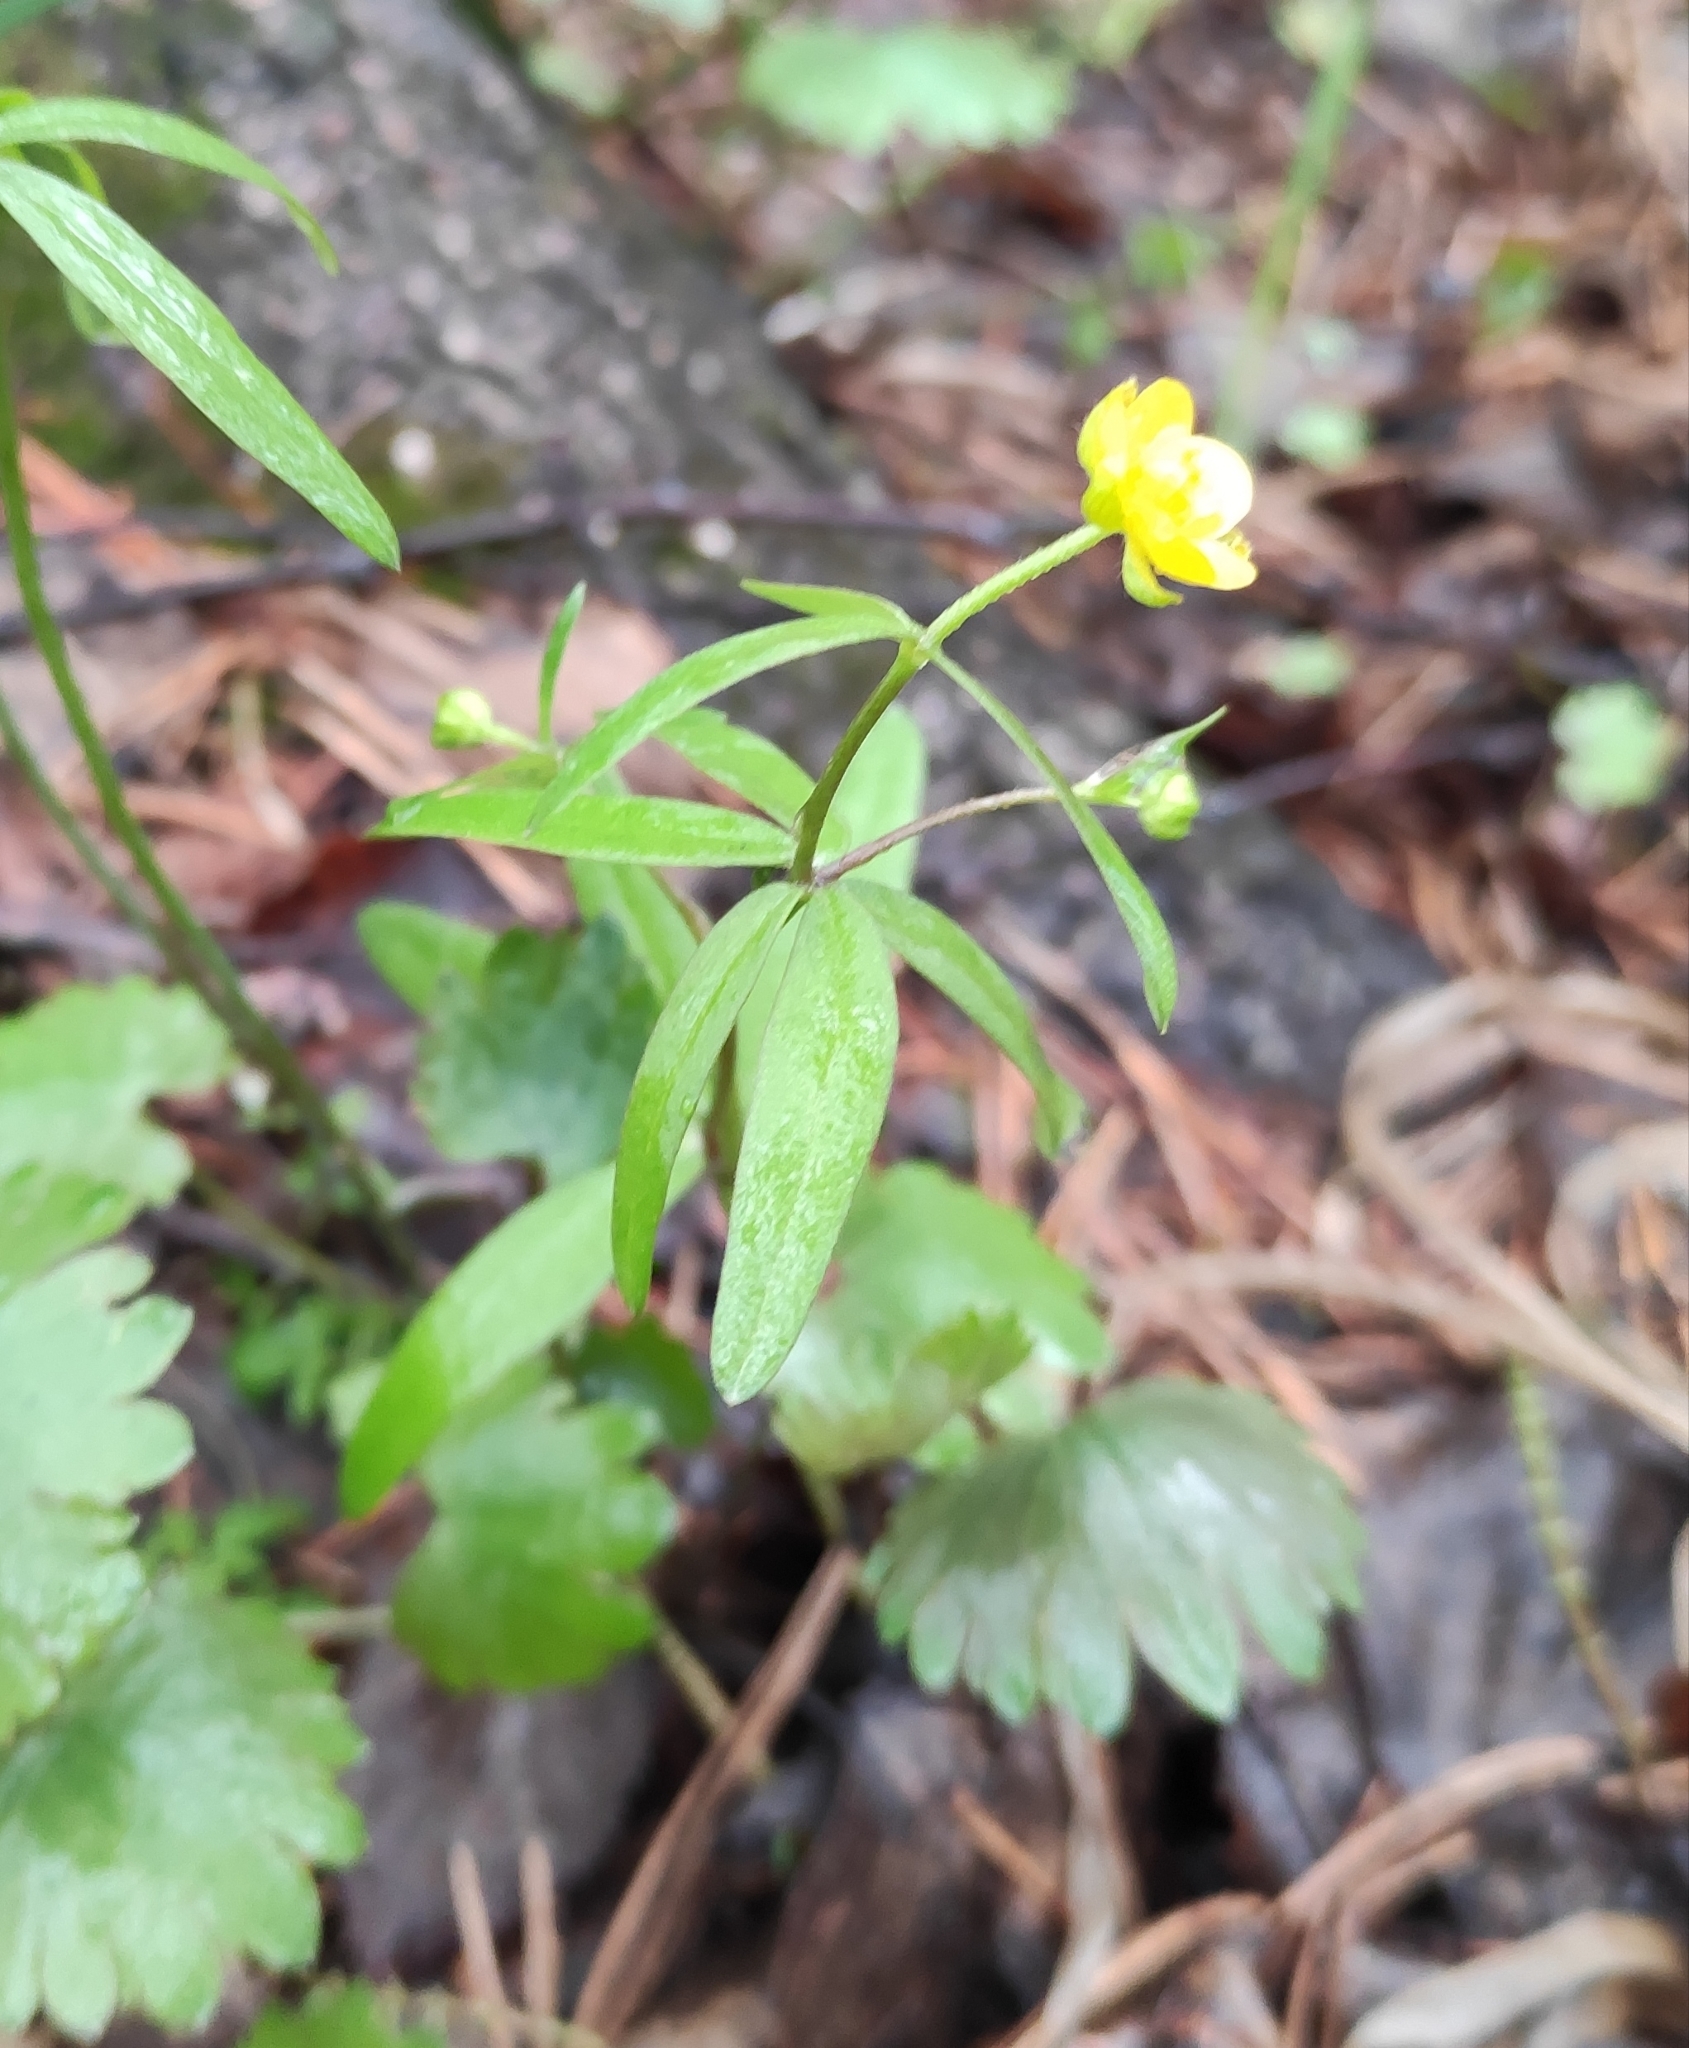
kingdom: Plantae
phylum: Tracheophyta
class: Magnoliopsida
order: Ranunculales
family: Ranunculaceae
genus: Ranunculus
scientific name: Ranunculus monophyllus
